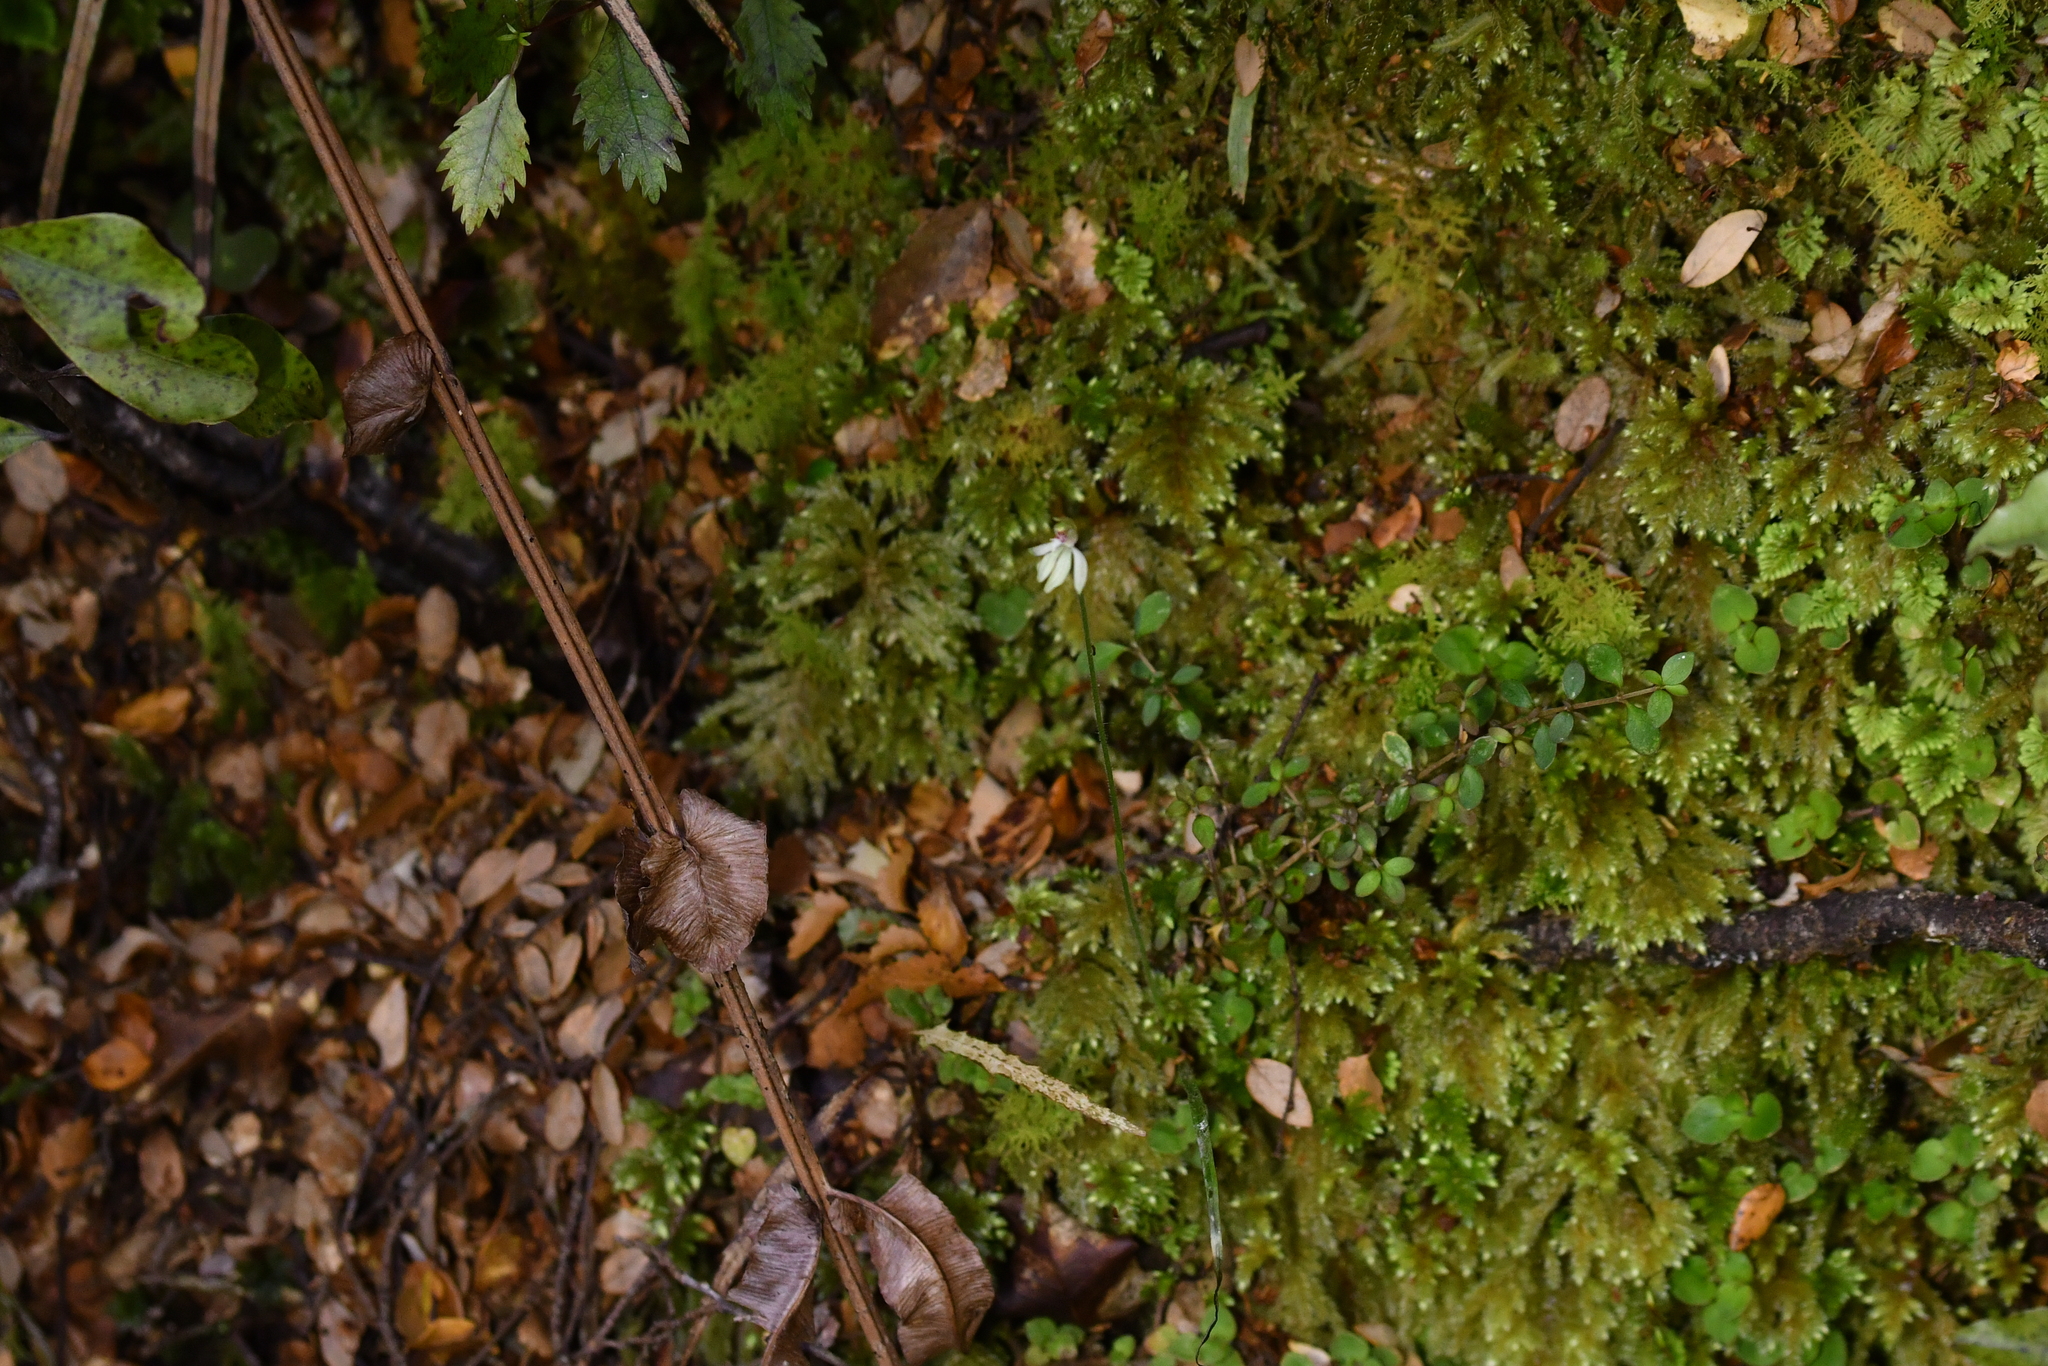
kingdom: Plantae
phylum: Tracheophyta
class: Liliopsida
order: Asparagales
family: Orchidaceae
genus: Caladenia
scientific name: Caladenia chlorostyla
